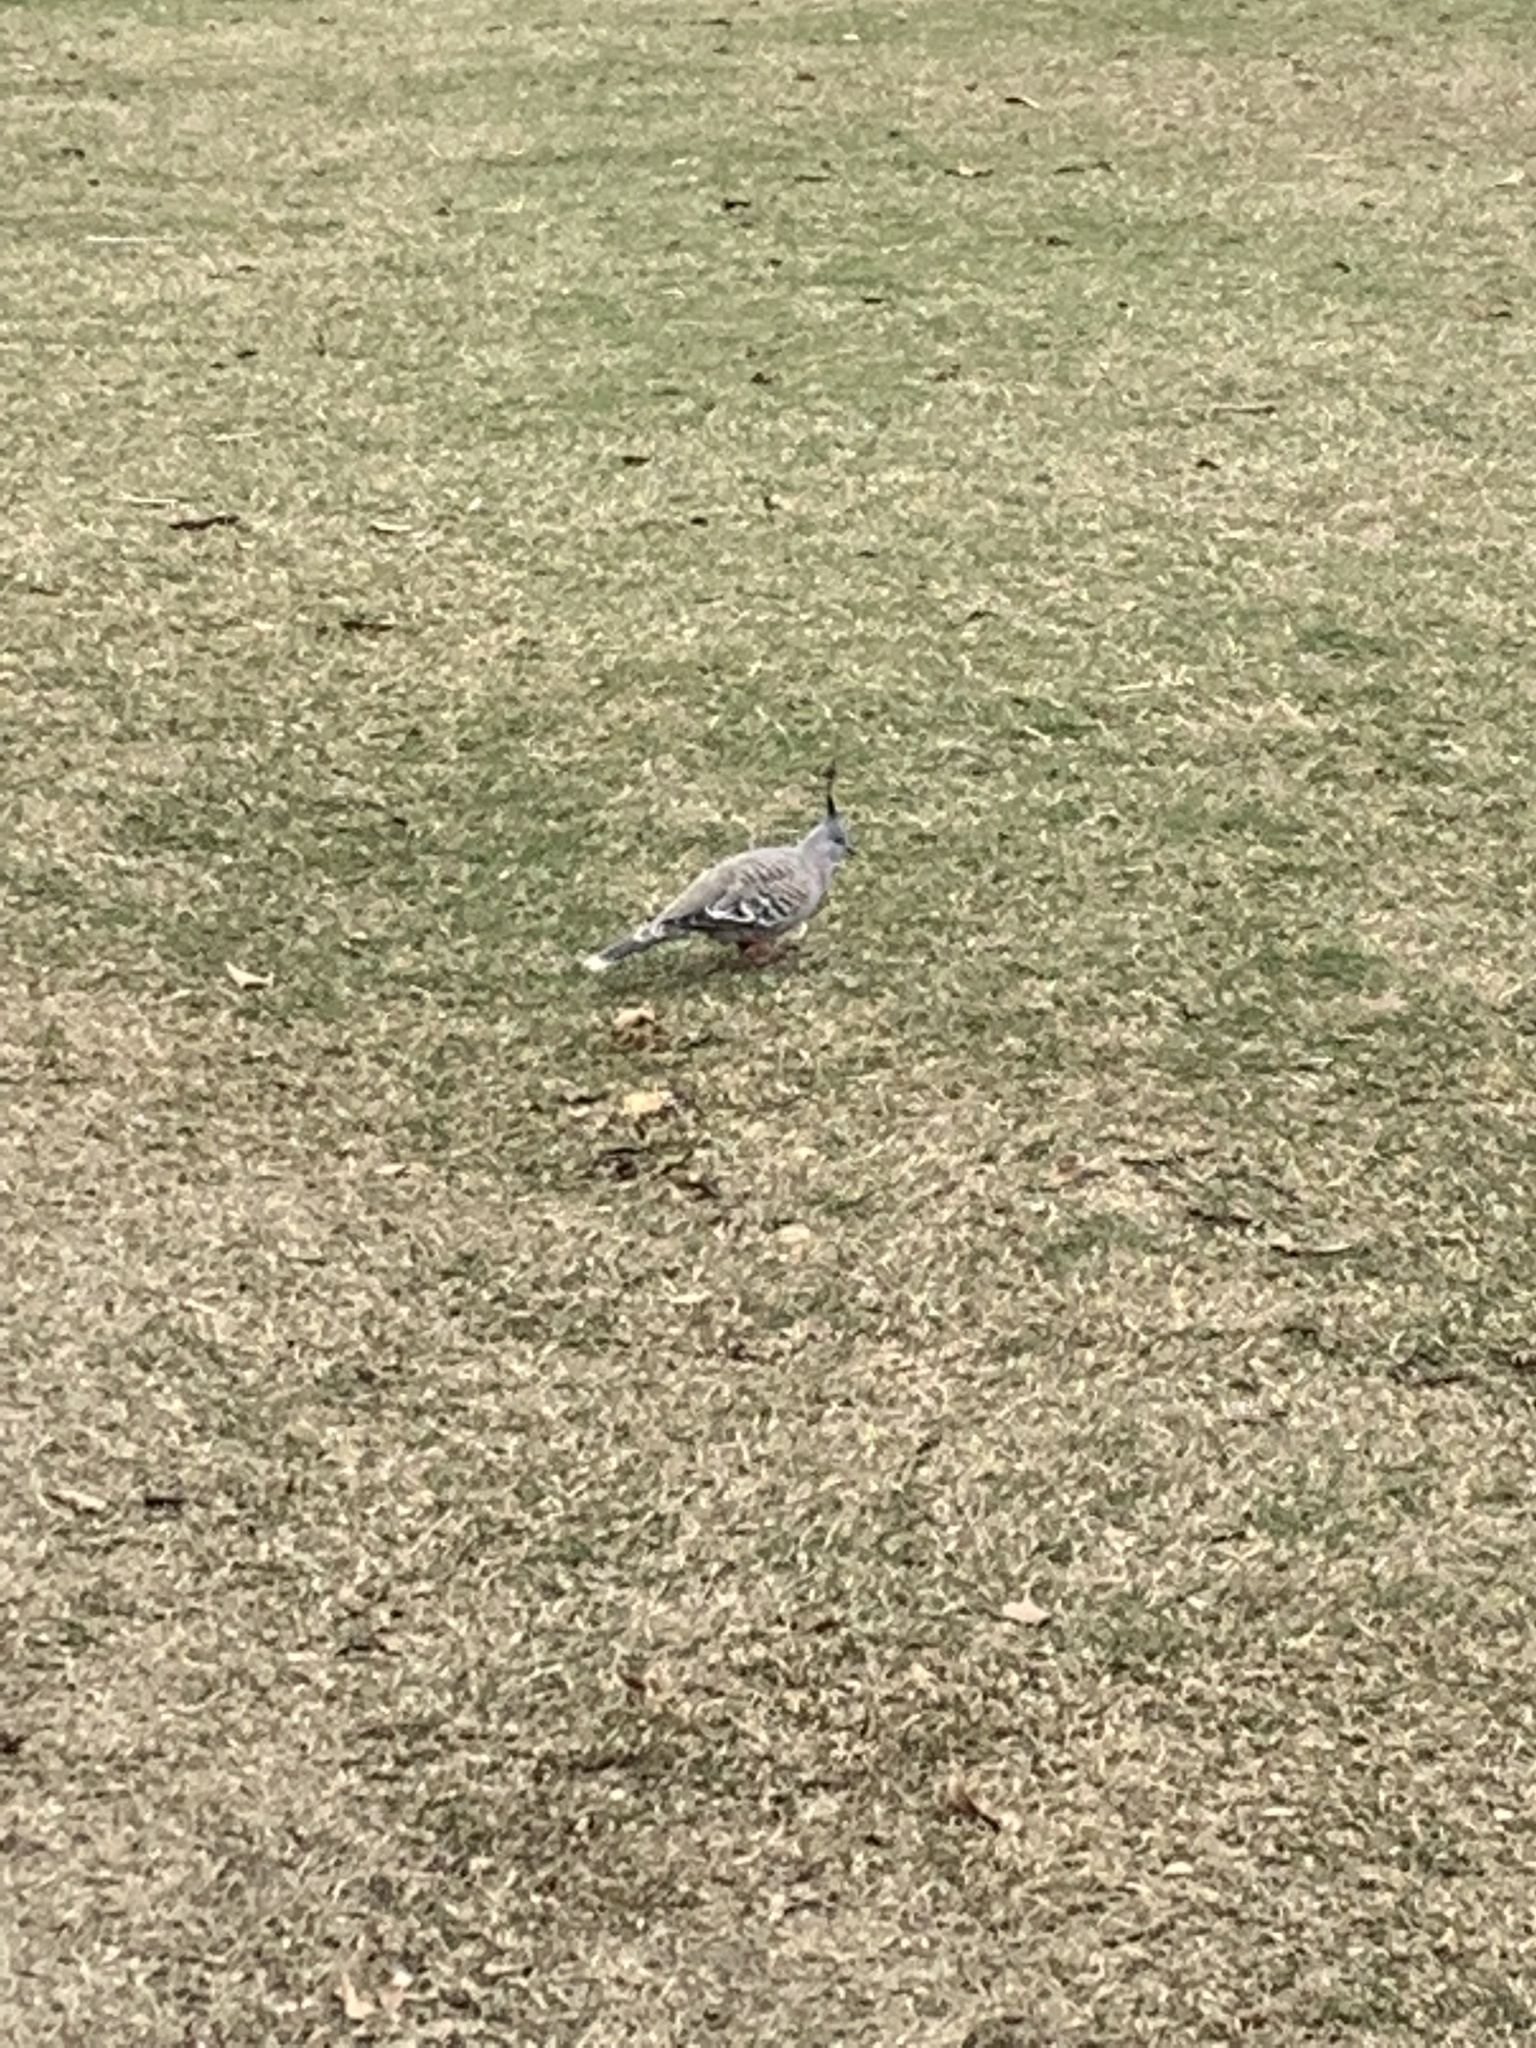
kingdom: Animalia
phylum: Chordata
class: Aves
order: Columbiformes
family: Columbidae
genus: Ocyphaps
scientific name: Ocyphaps lophotes
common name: Crested pigeon
